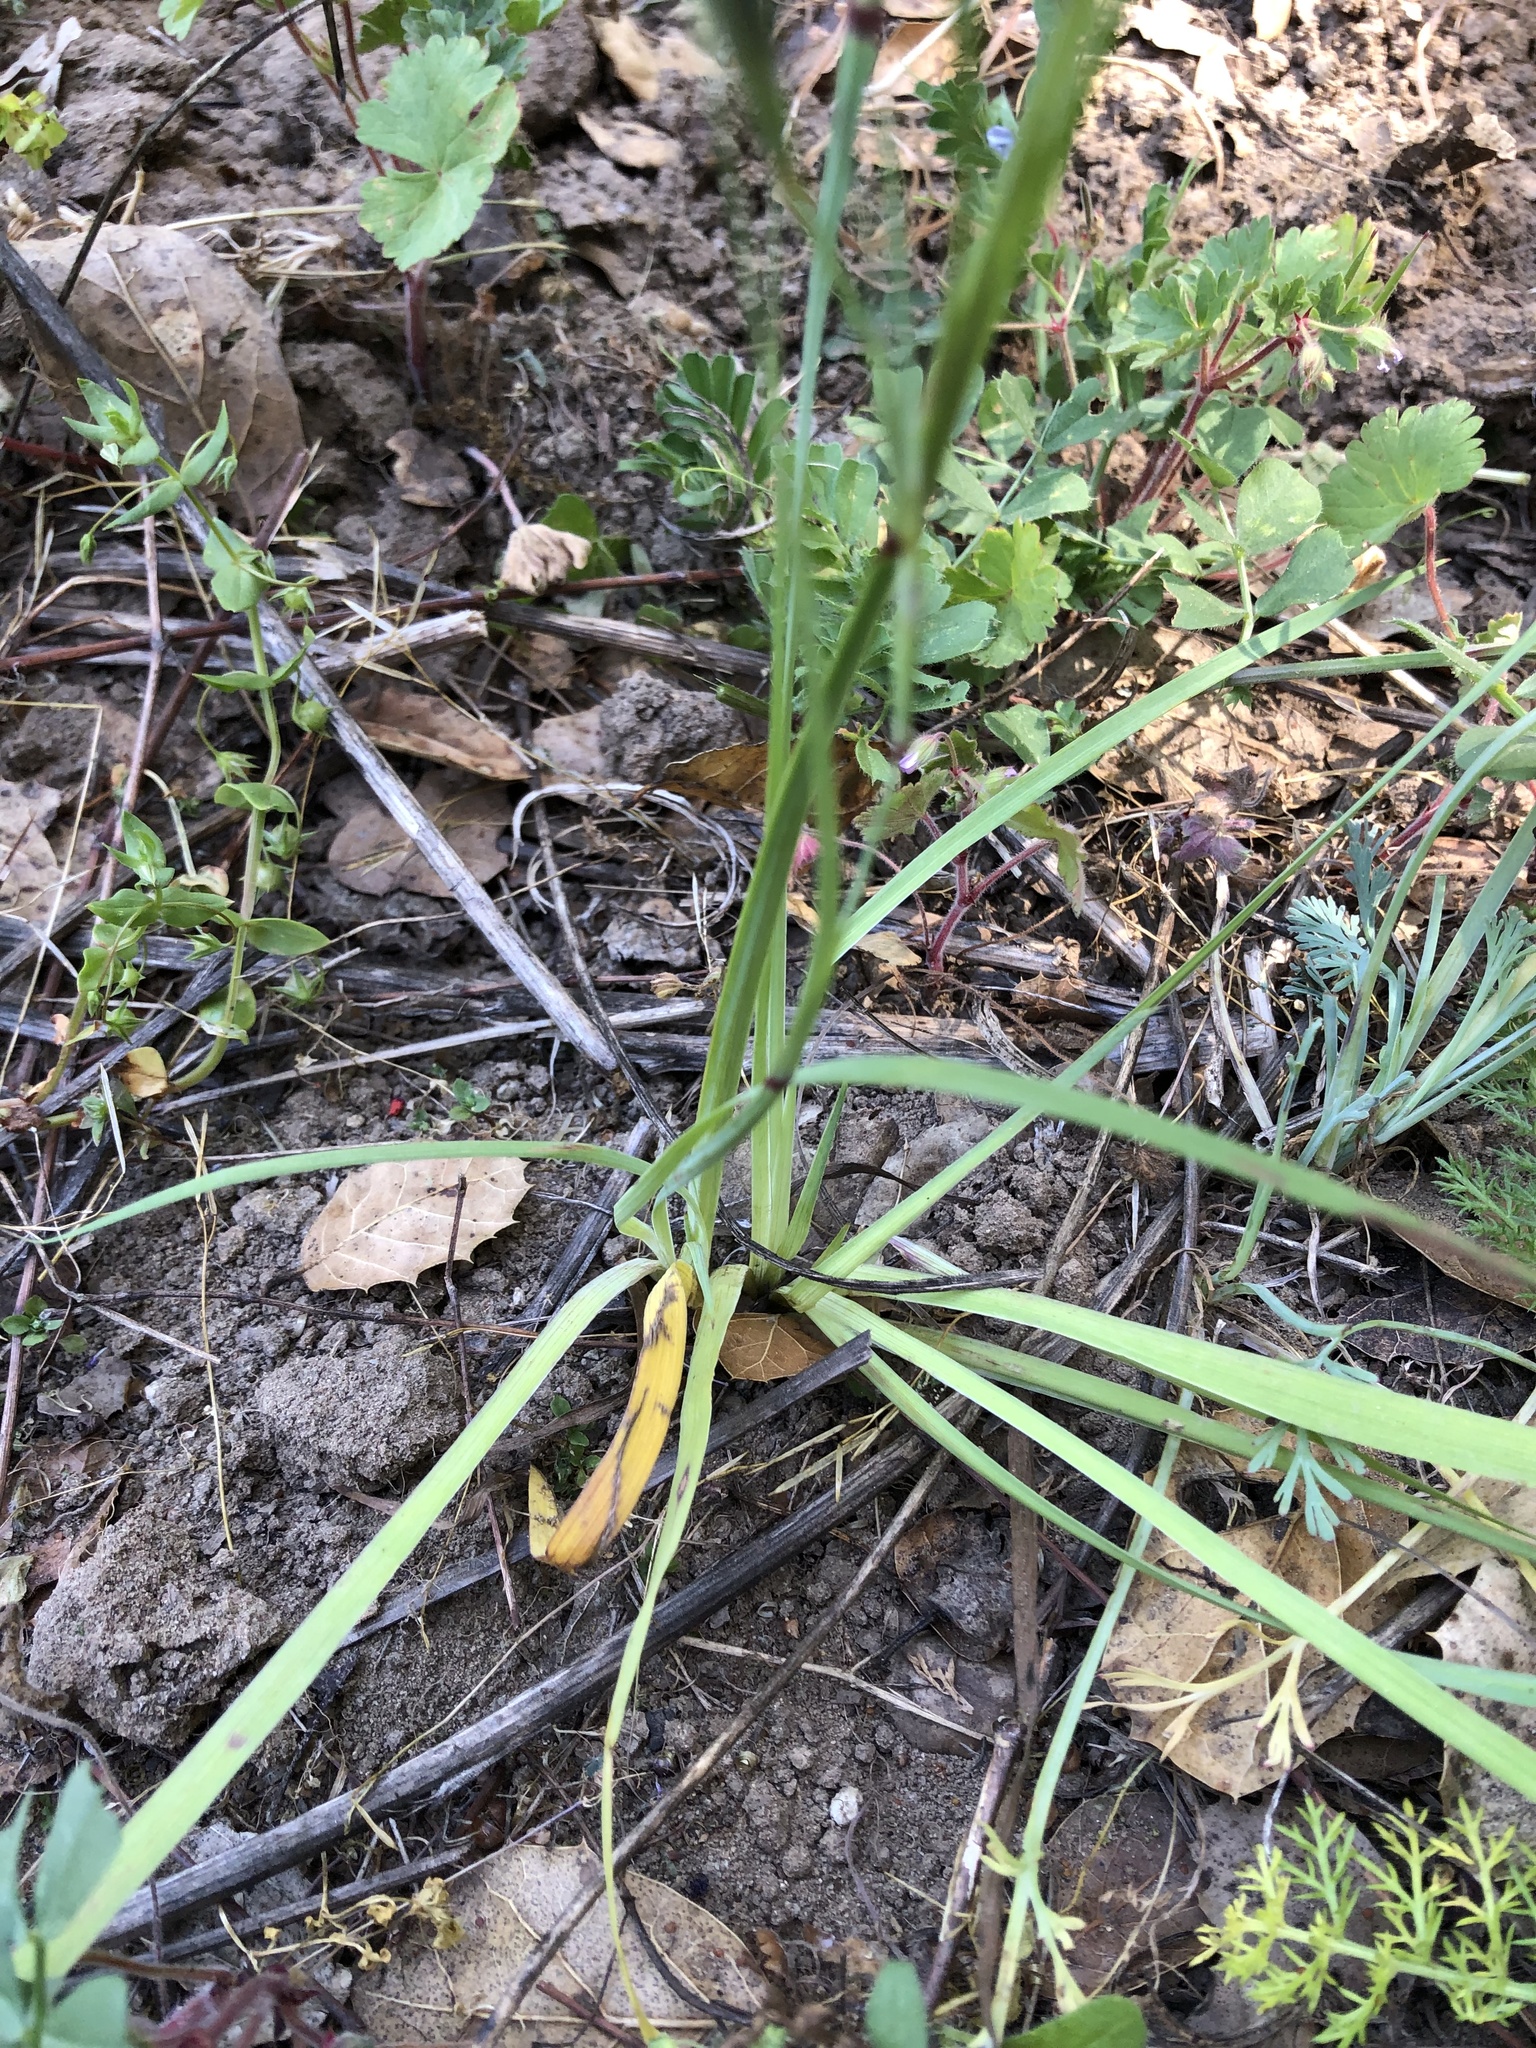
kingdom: Plantae
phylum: Tracheophyta
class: Liliopsida
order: Asparagales
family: Iridaceae
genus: Sisyrinchium
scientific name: Sisyrinchium bellum
